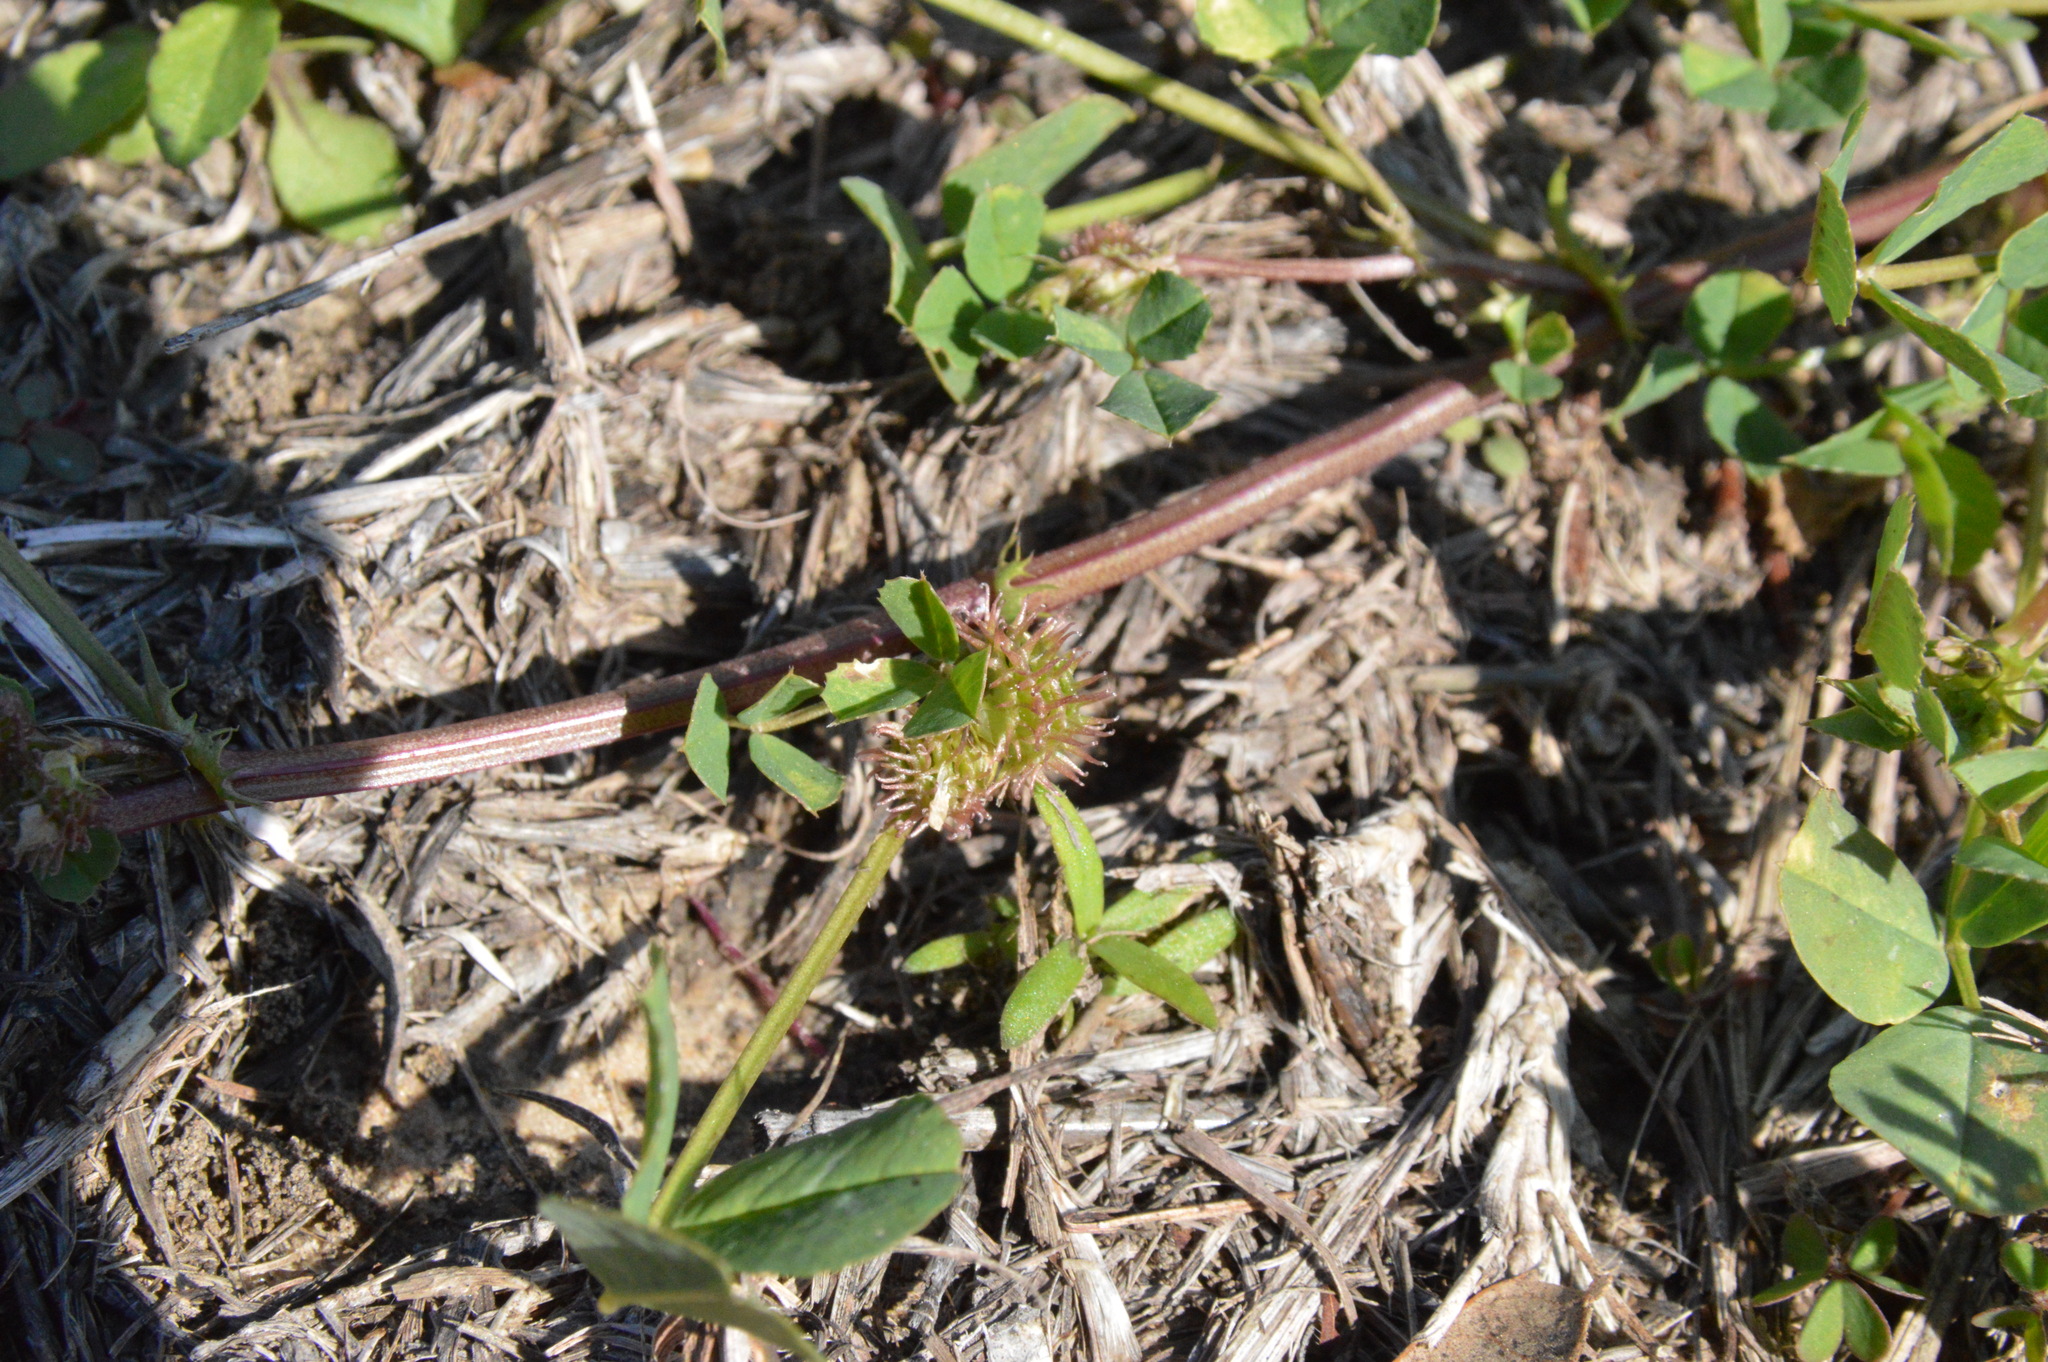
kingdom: Plantae
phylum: Tracheophyta
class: Magnoliopsida
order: Fabales
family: Fabaceae
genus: Medicago
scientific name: Medicago polymorpha
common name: Burclover
